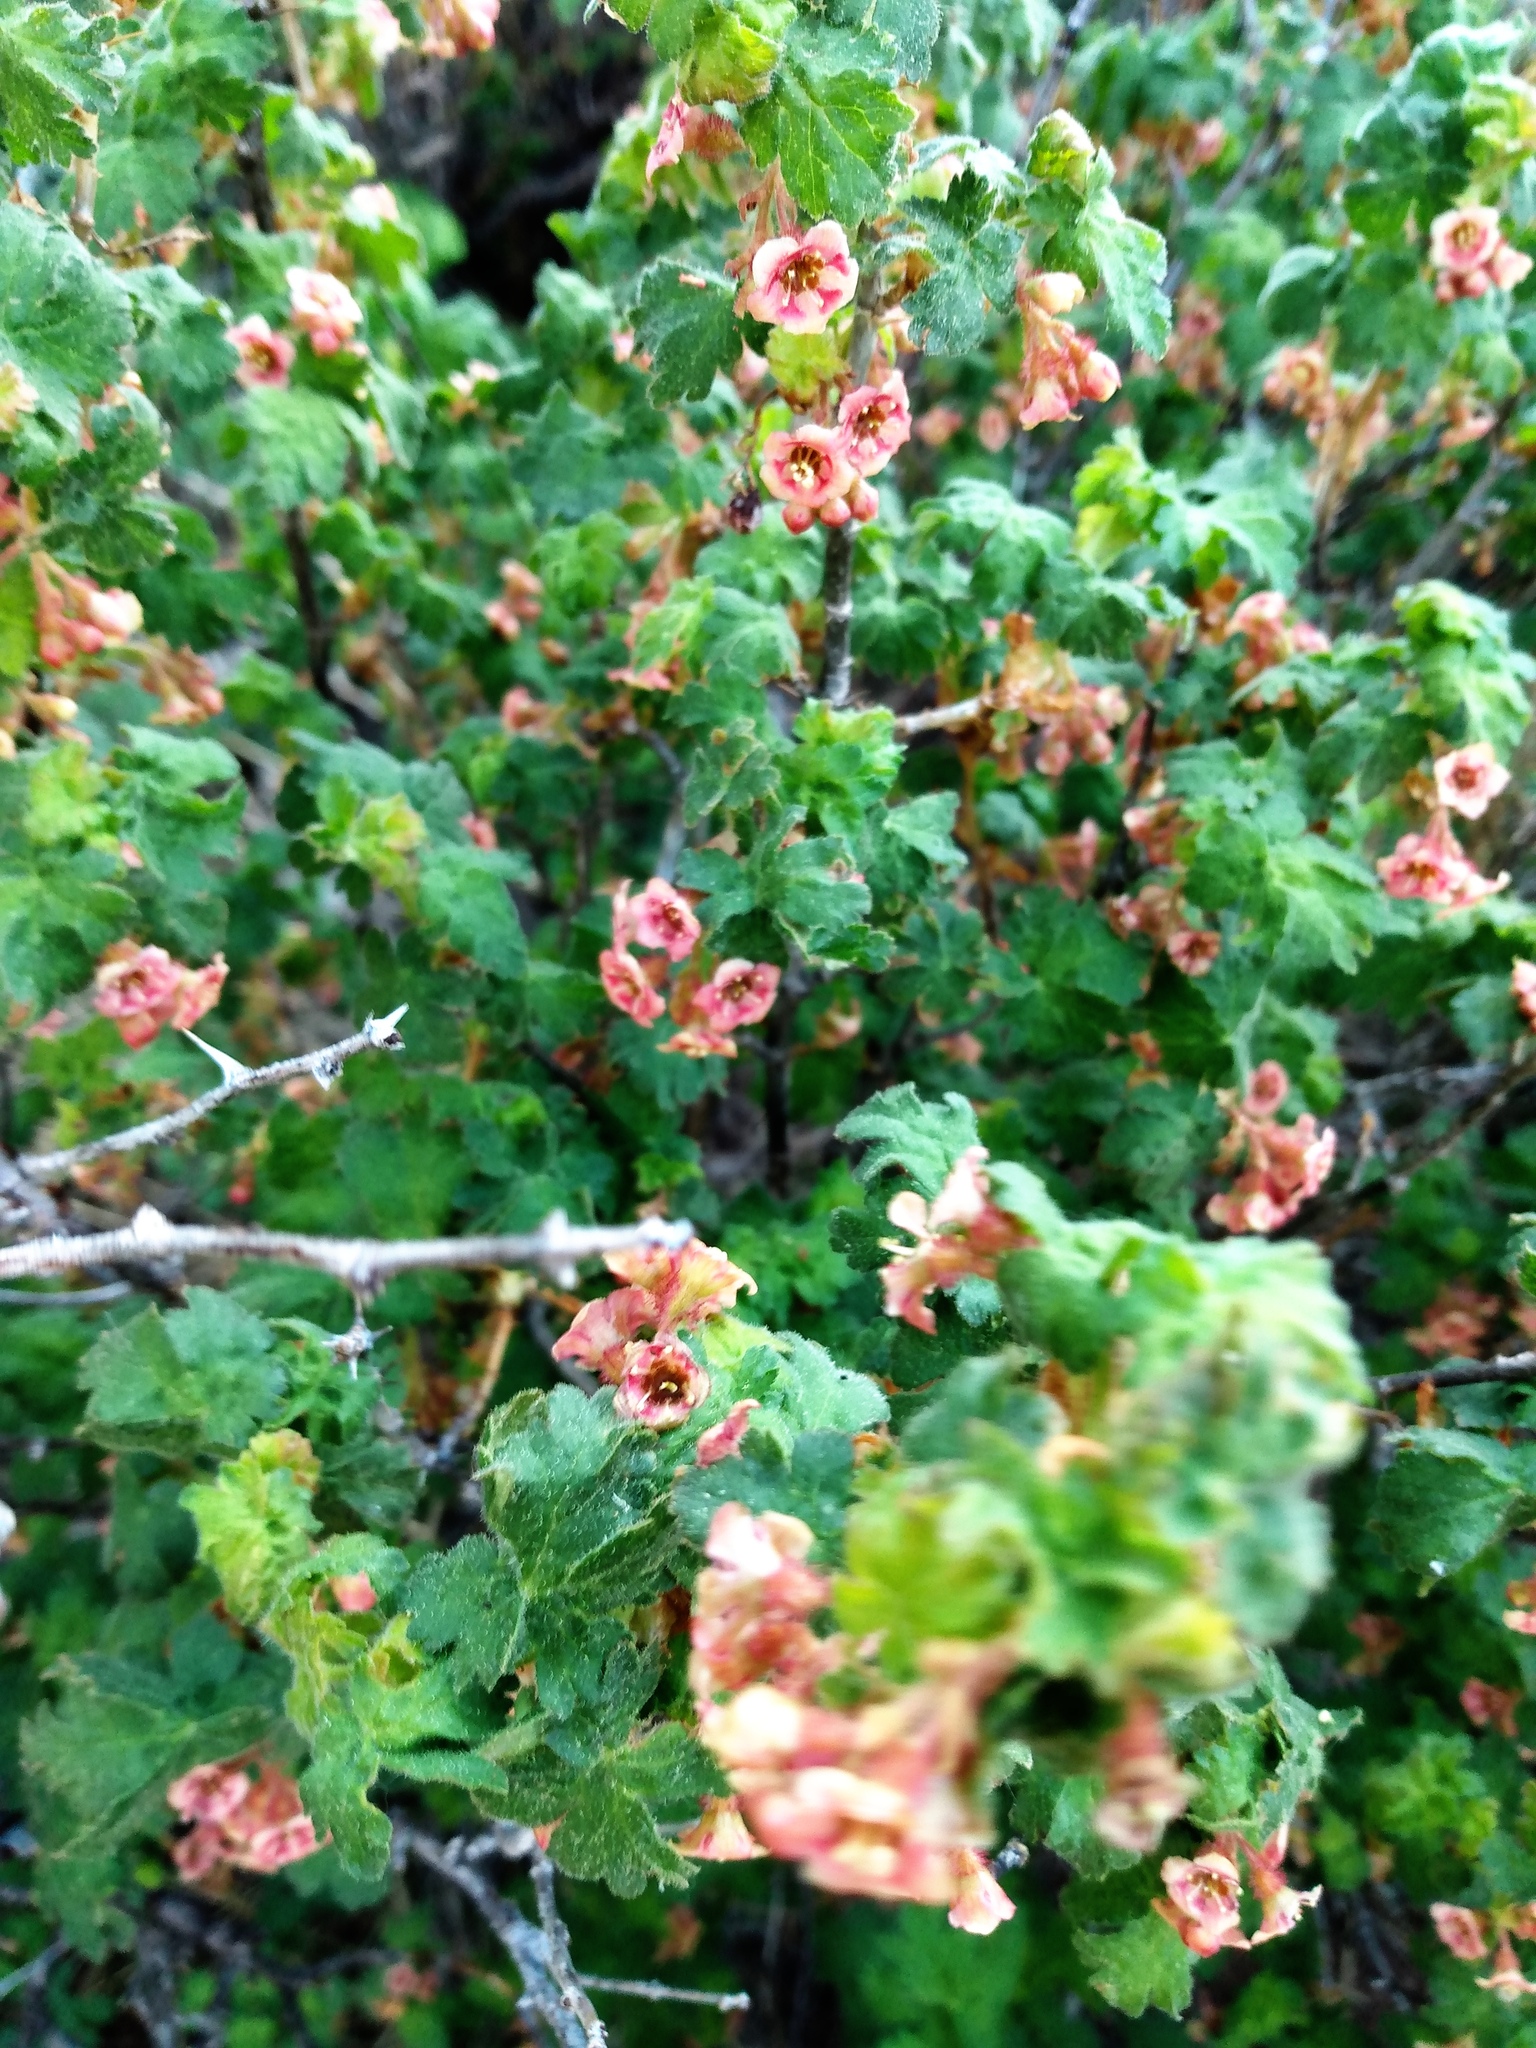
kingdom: Plantae
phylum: Tracheophyta
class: Magnoliopsida
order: Saxifragales
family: Grossulariaceae
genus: Ribes
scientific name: Ribes montigenum
